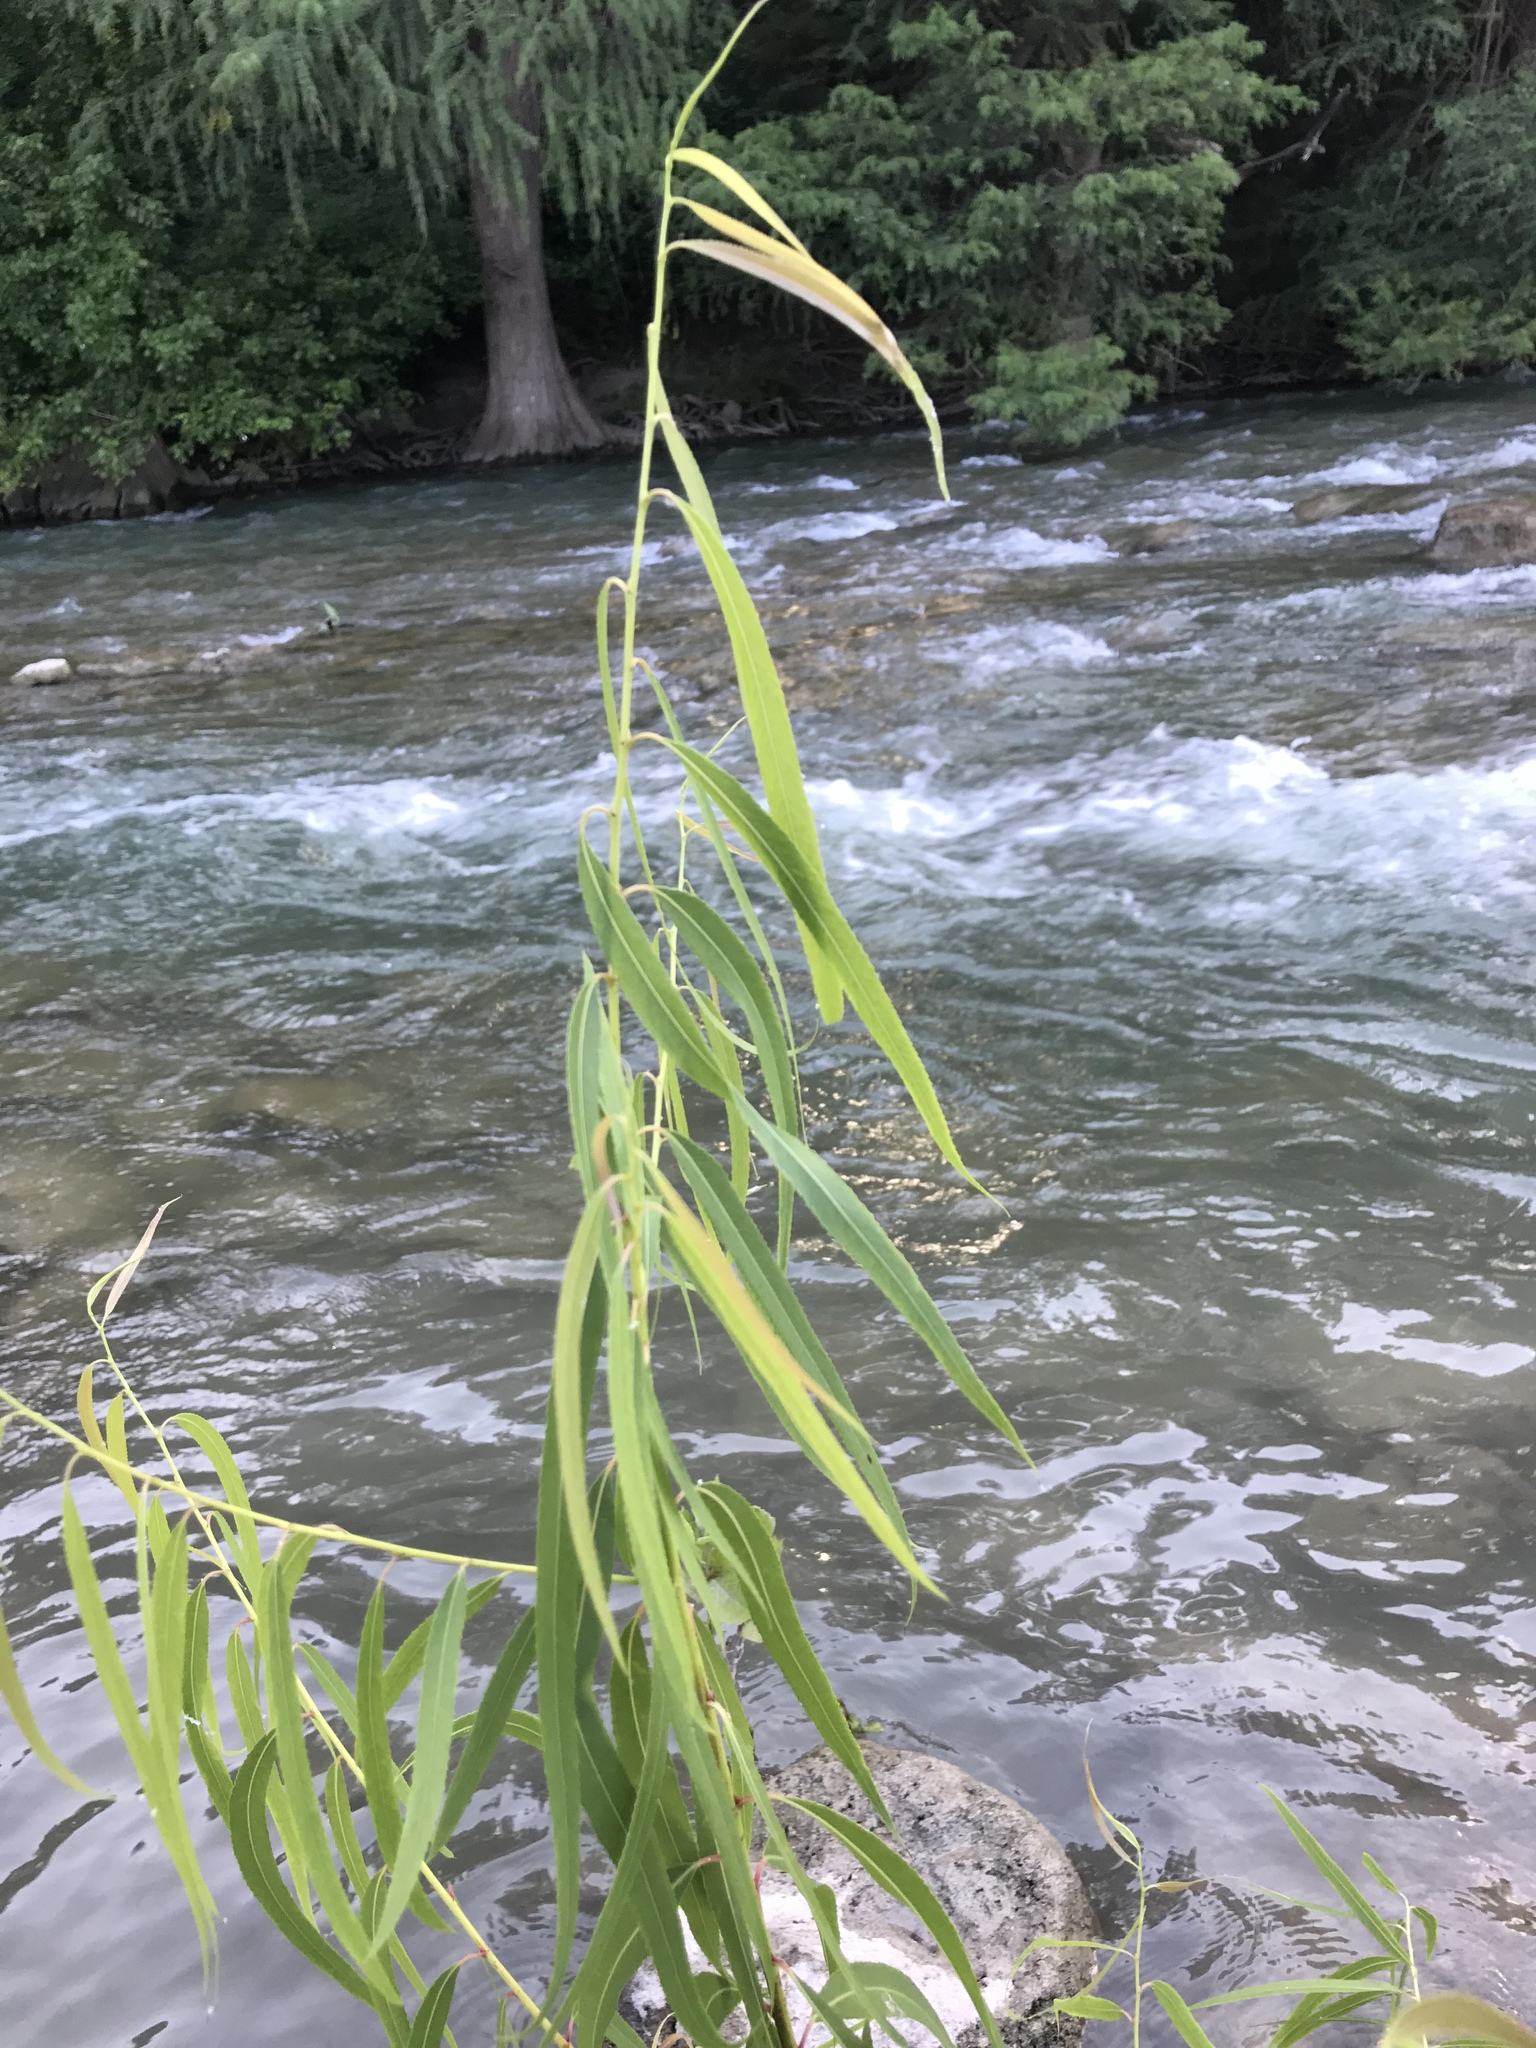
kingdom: Plantae
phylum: Tracheophyta
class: Magnoliopsida
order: Malpighiales
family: Salicaceae
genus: Salix
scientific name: Salix nigra
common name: Black willow
